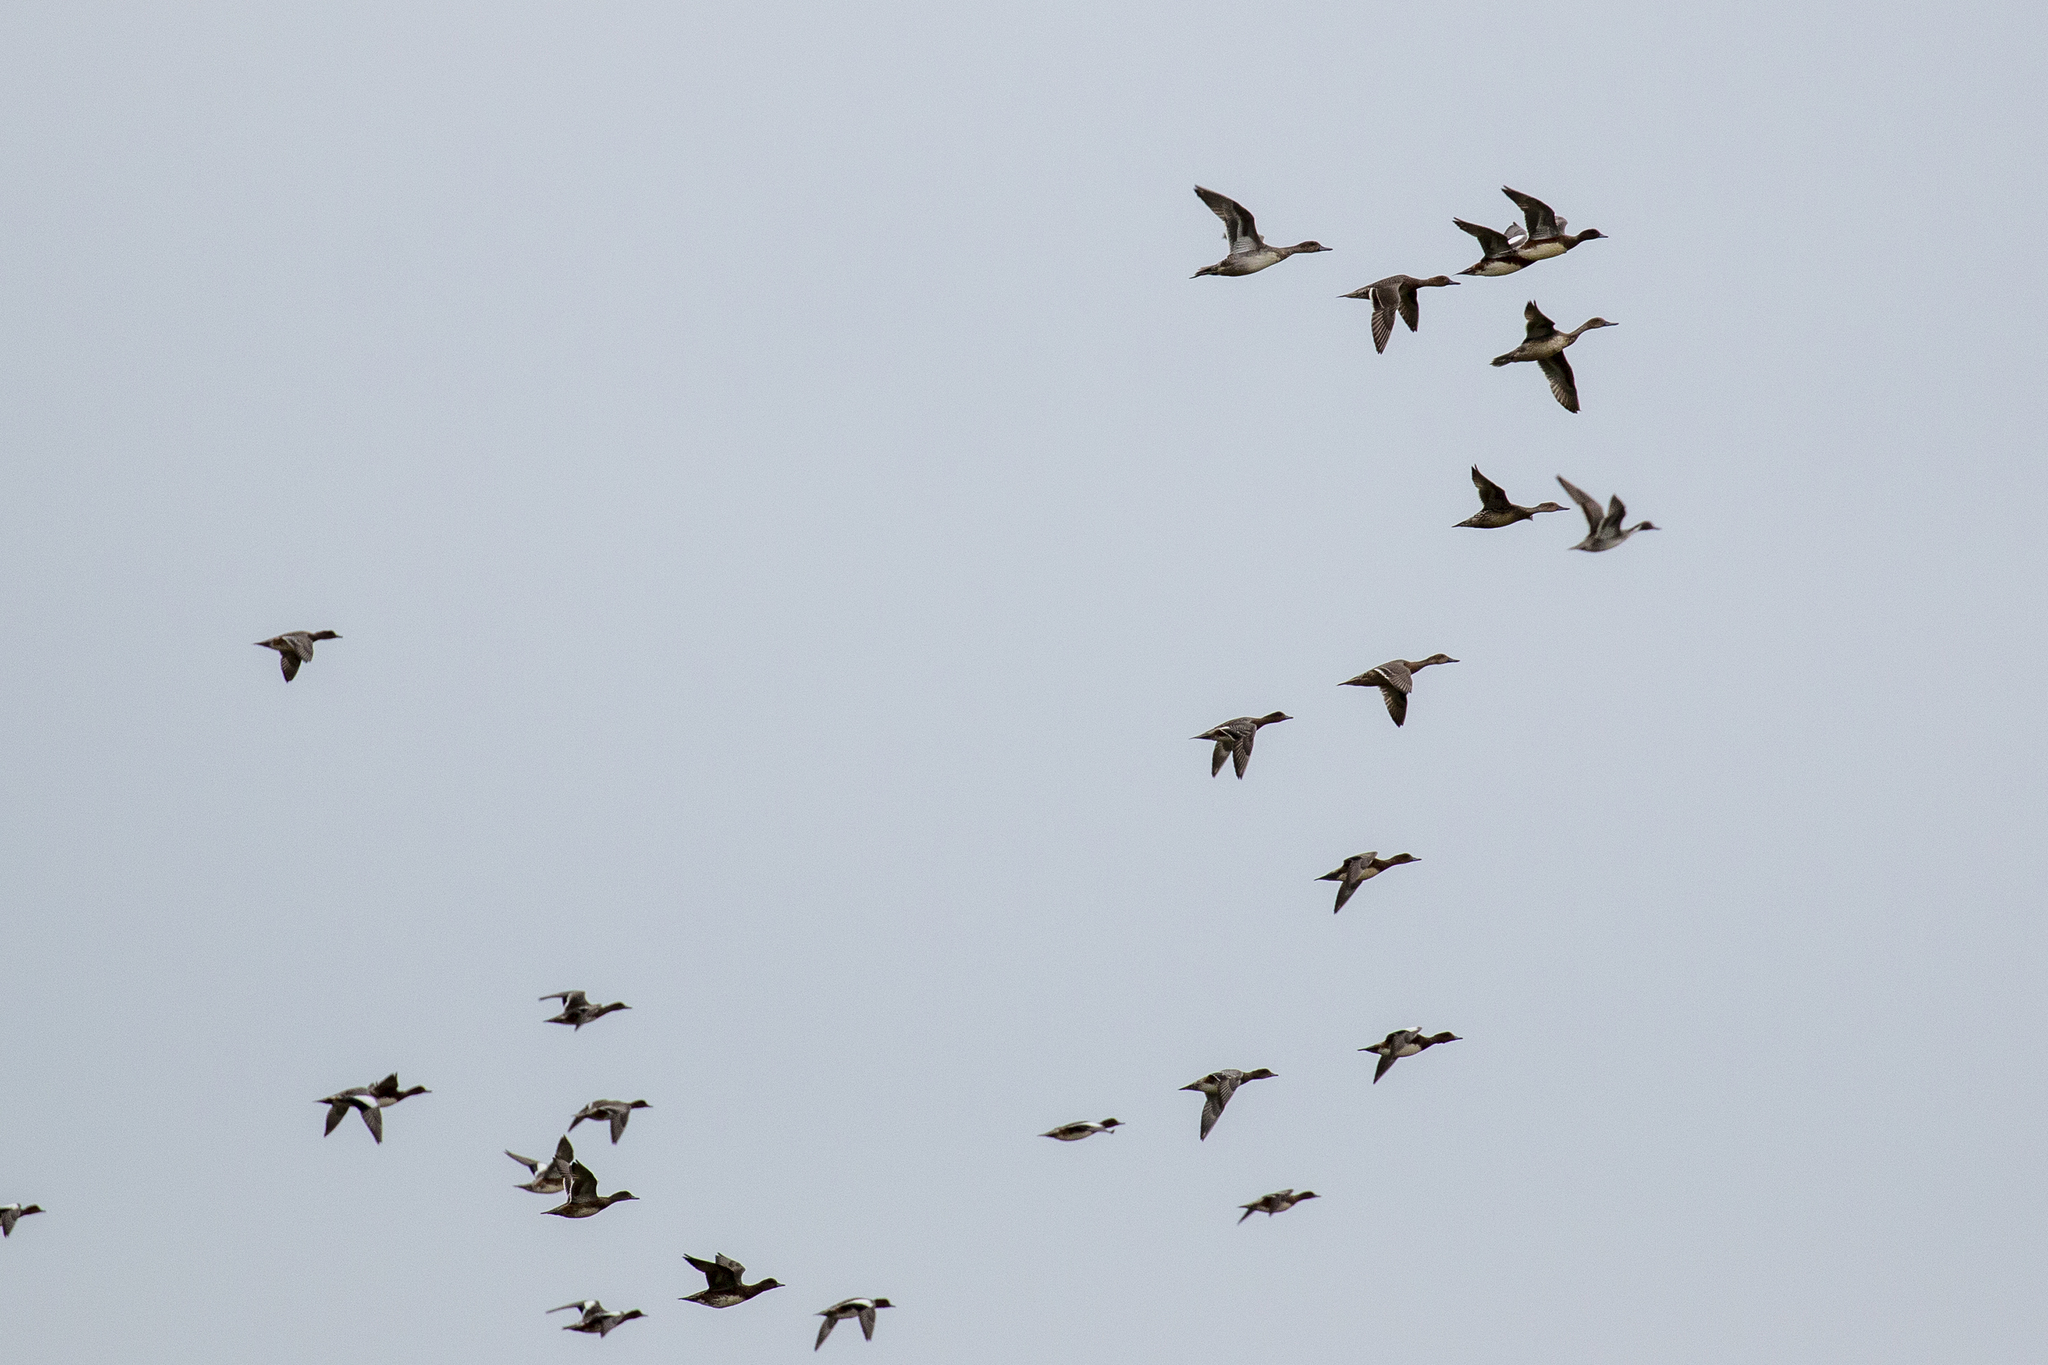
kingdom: Animalia
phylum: Chordata
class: Aves
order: Anseriformes
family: Anatidae
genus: Mareca
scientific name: Mareca penelope
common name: Eurasian wigeon
